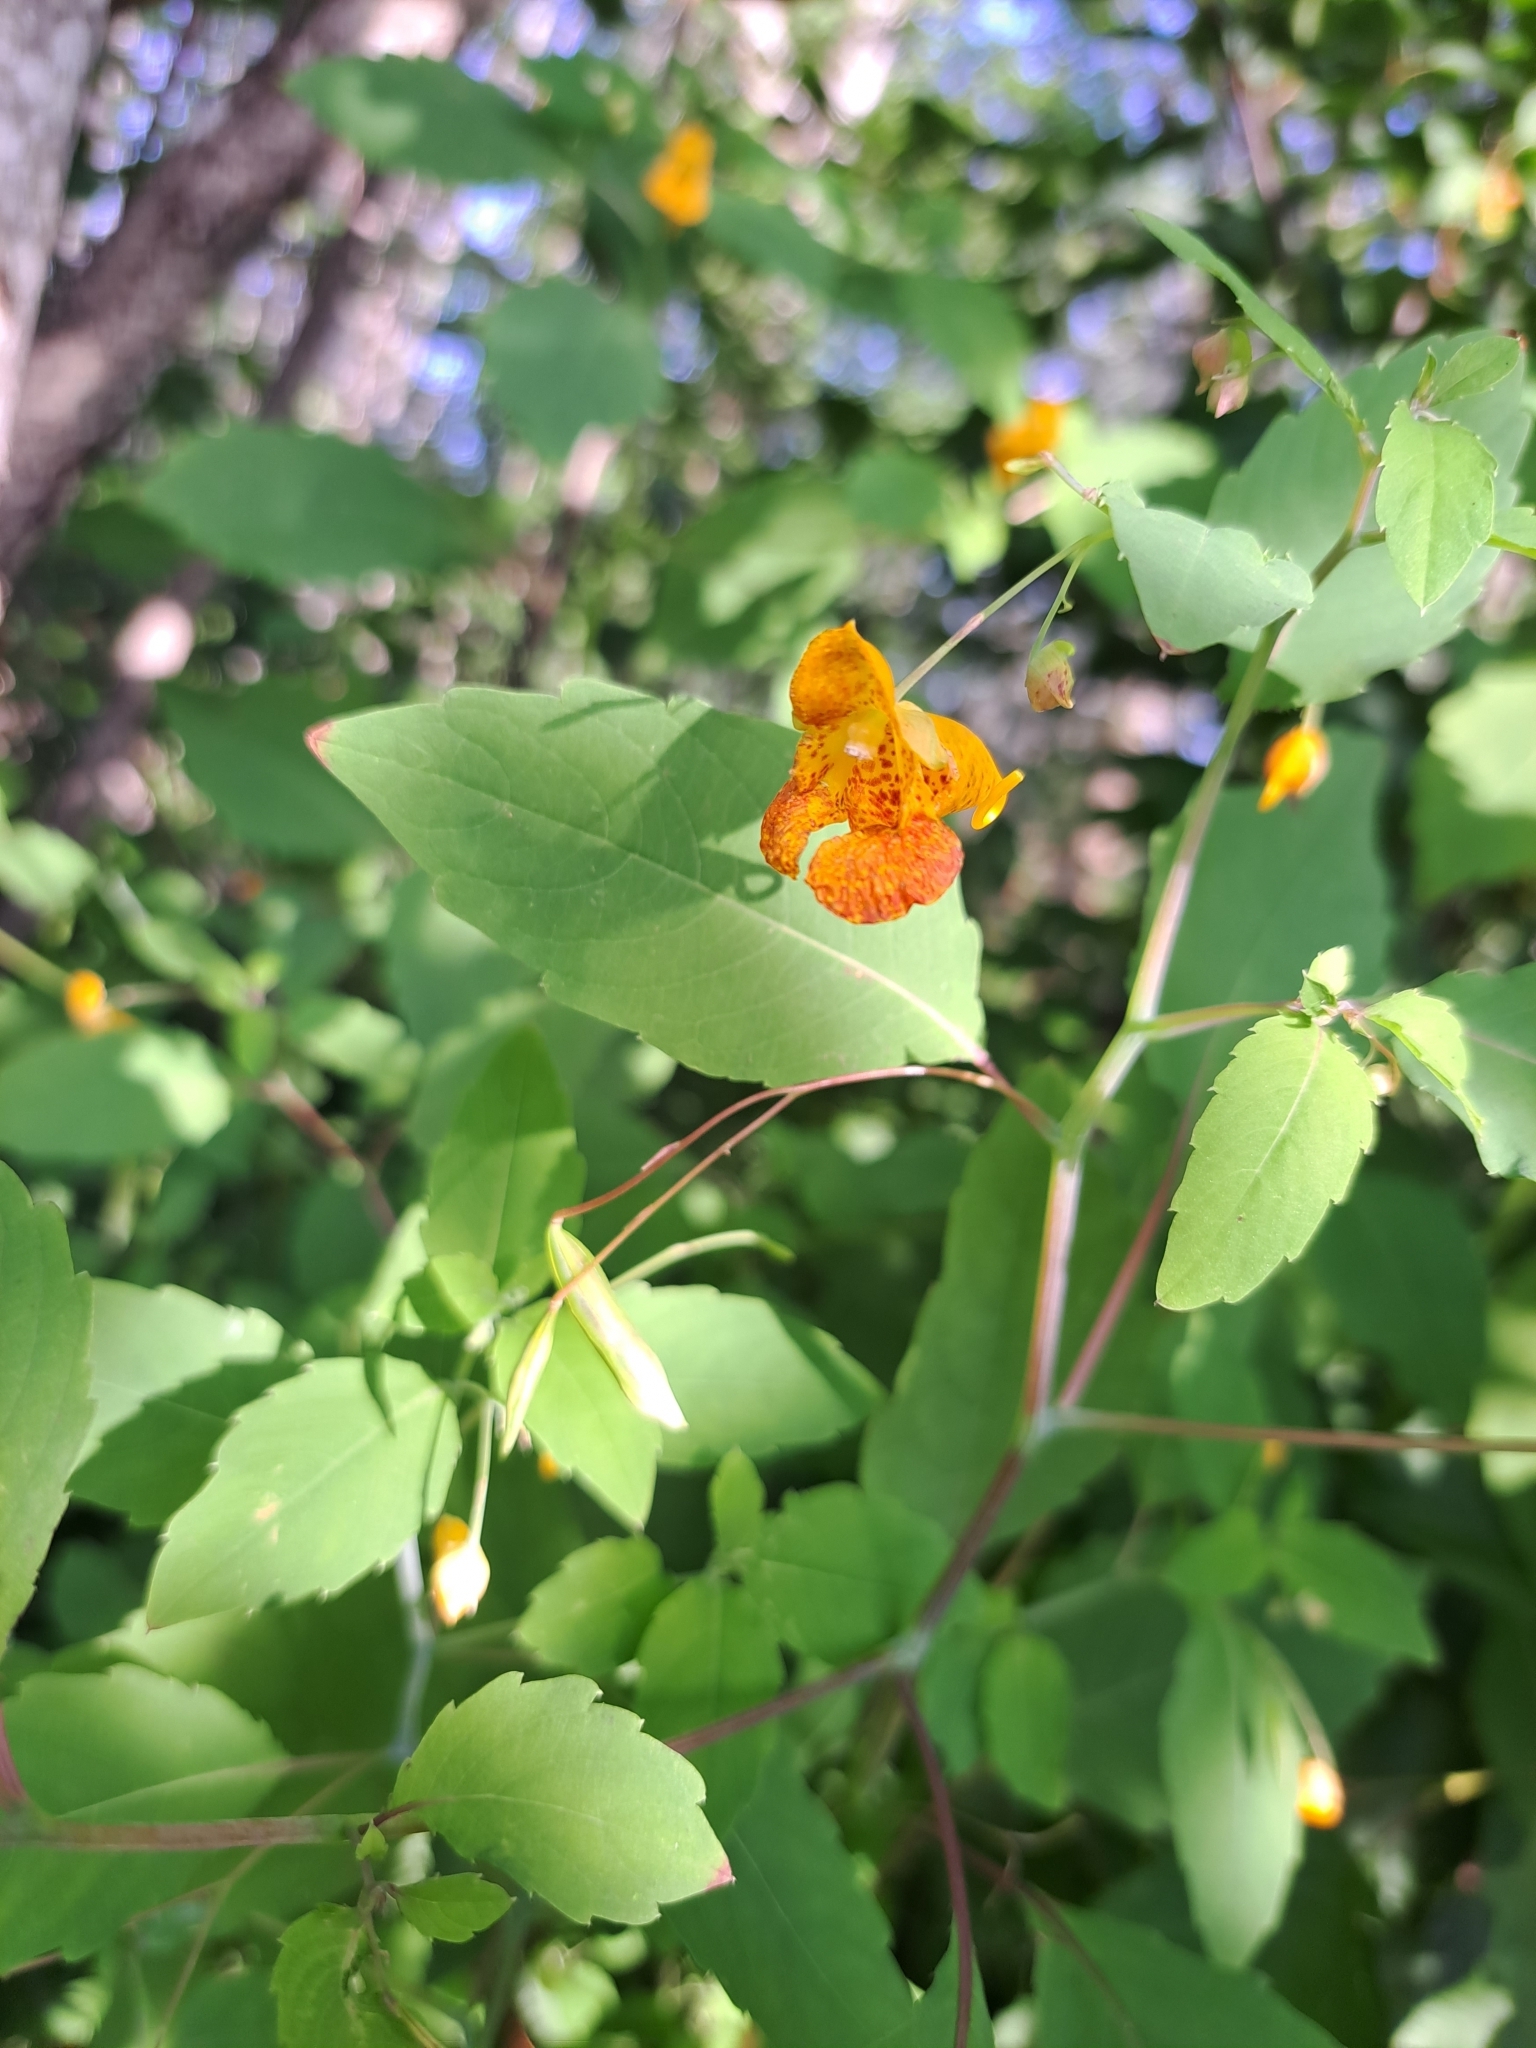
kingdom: Plantae
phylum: Tracheophyta
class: Magnoliopsida
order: Ericales
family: Balsaminaceae
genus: Impatiens
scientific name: Impatiens capensis
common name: Orange balsam
